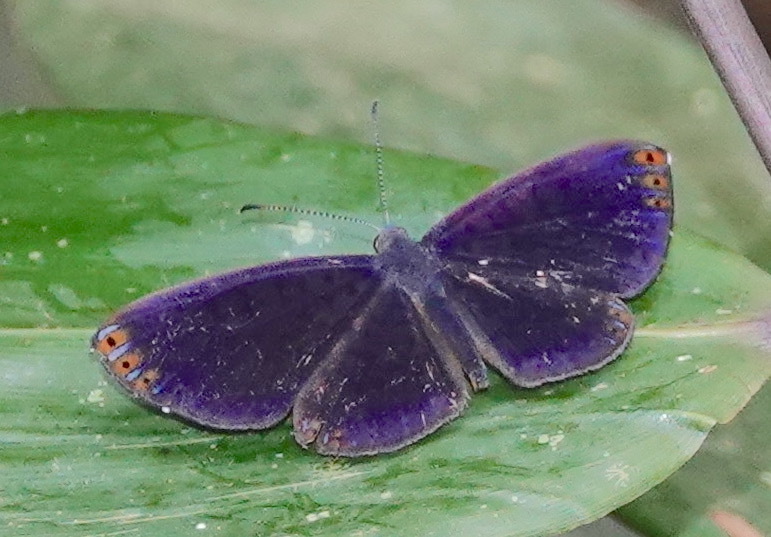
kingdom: Animalia
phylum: Arthropoda
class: Insecta
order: Lepidoptera
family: Riodinidae
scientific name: Riodinidae
